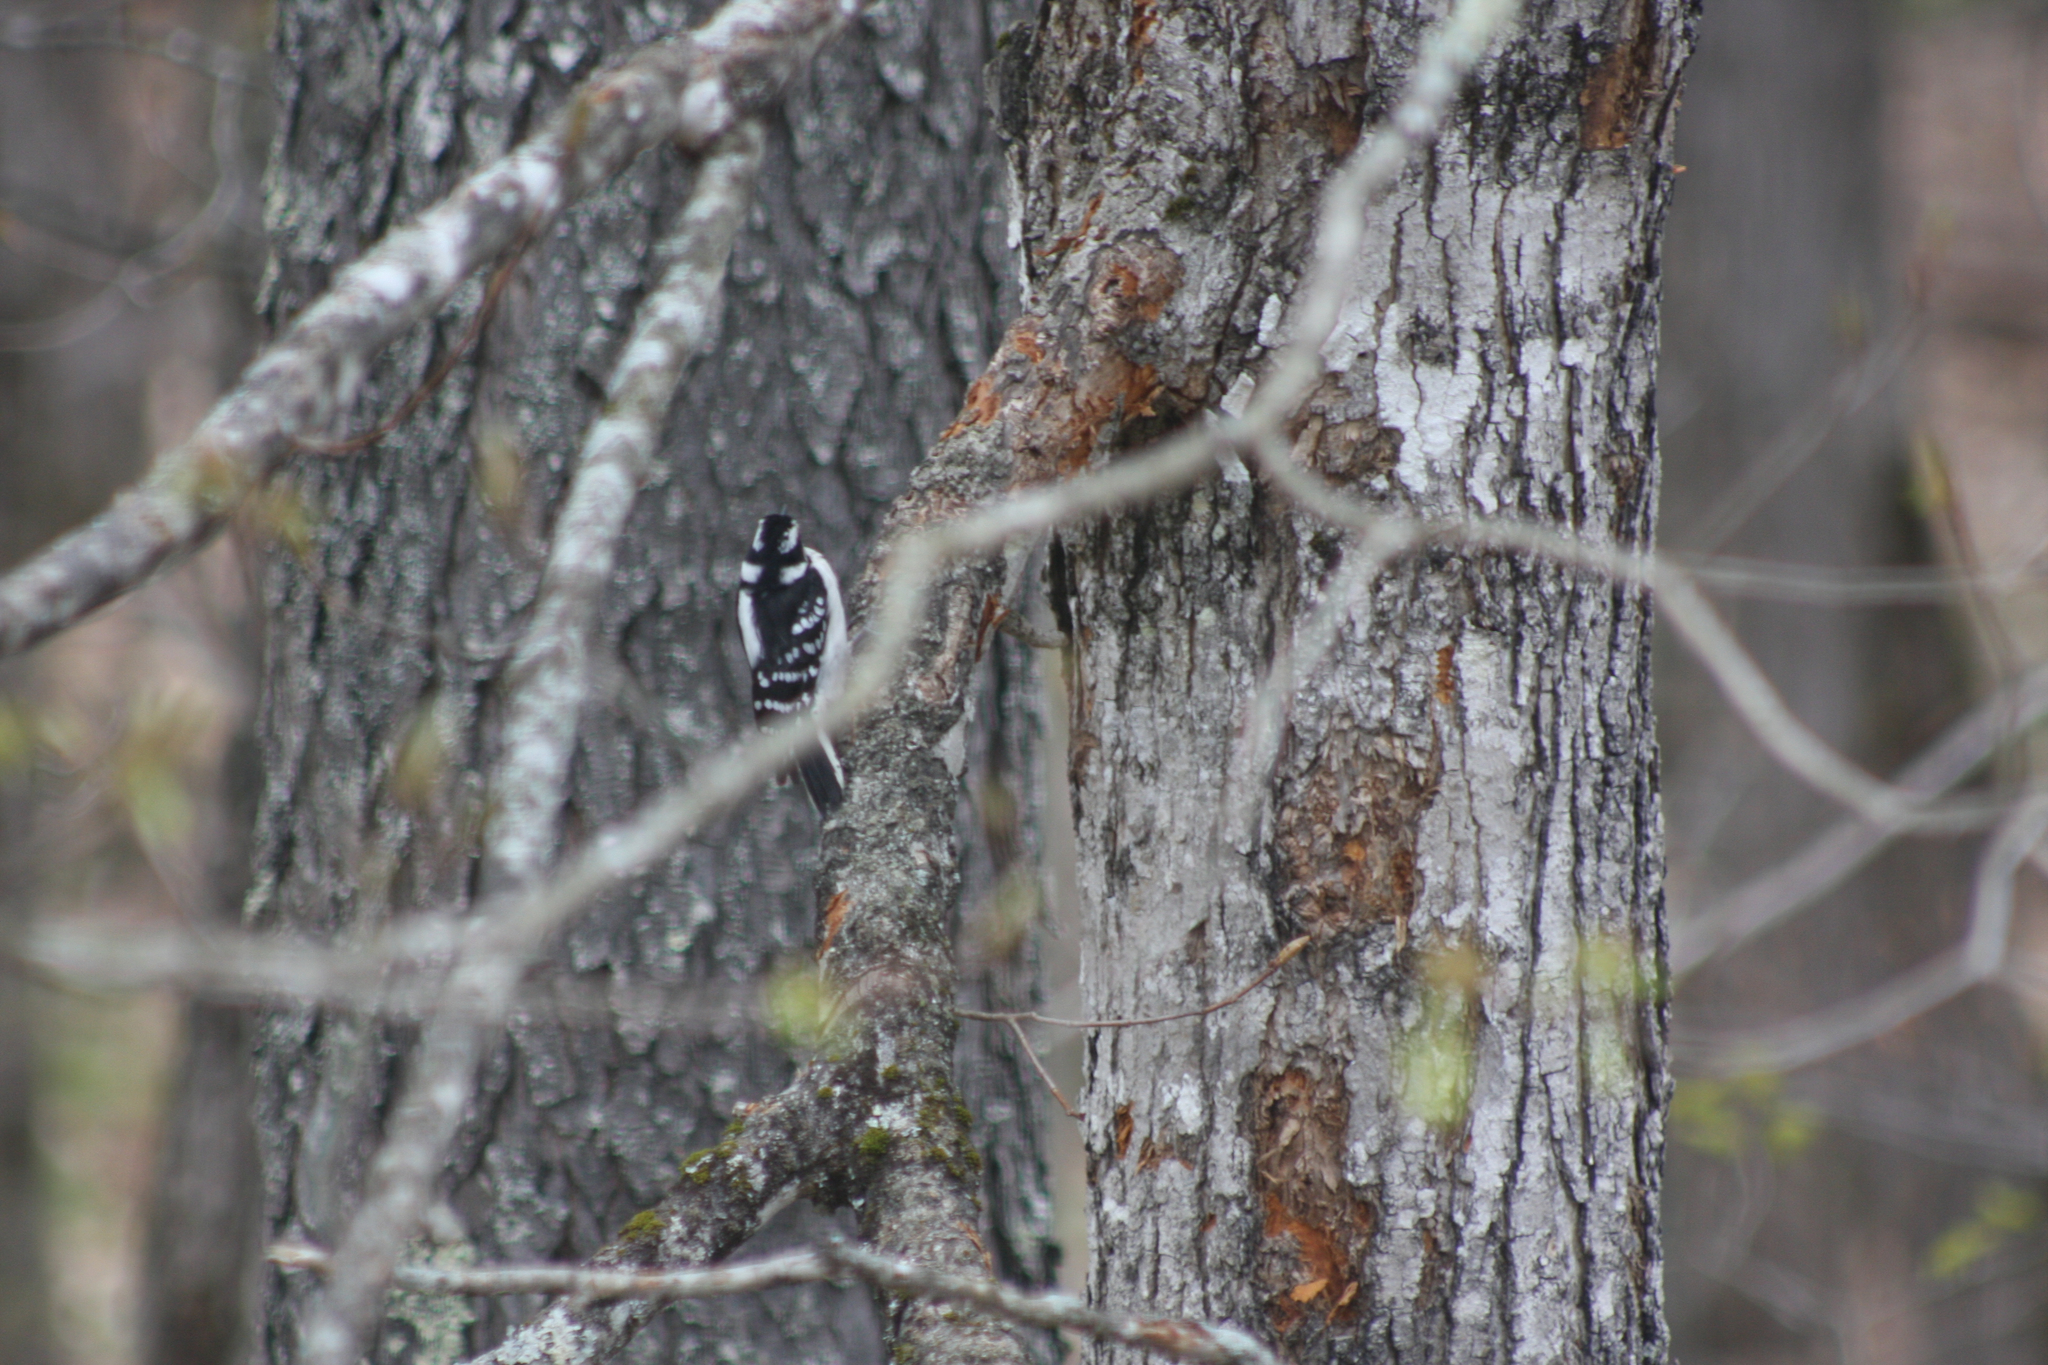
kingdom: Animalia
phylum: Chordata
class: Aves
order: Piciformes
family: Picidae
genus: Dryobates
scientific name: Dryobates pubescens
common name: Downy woodpecker
